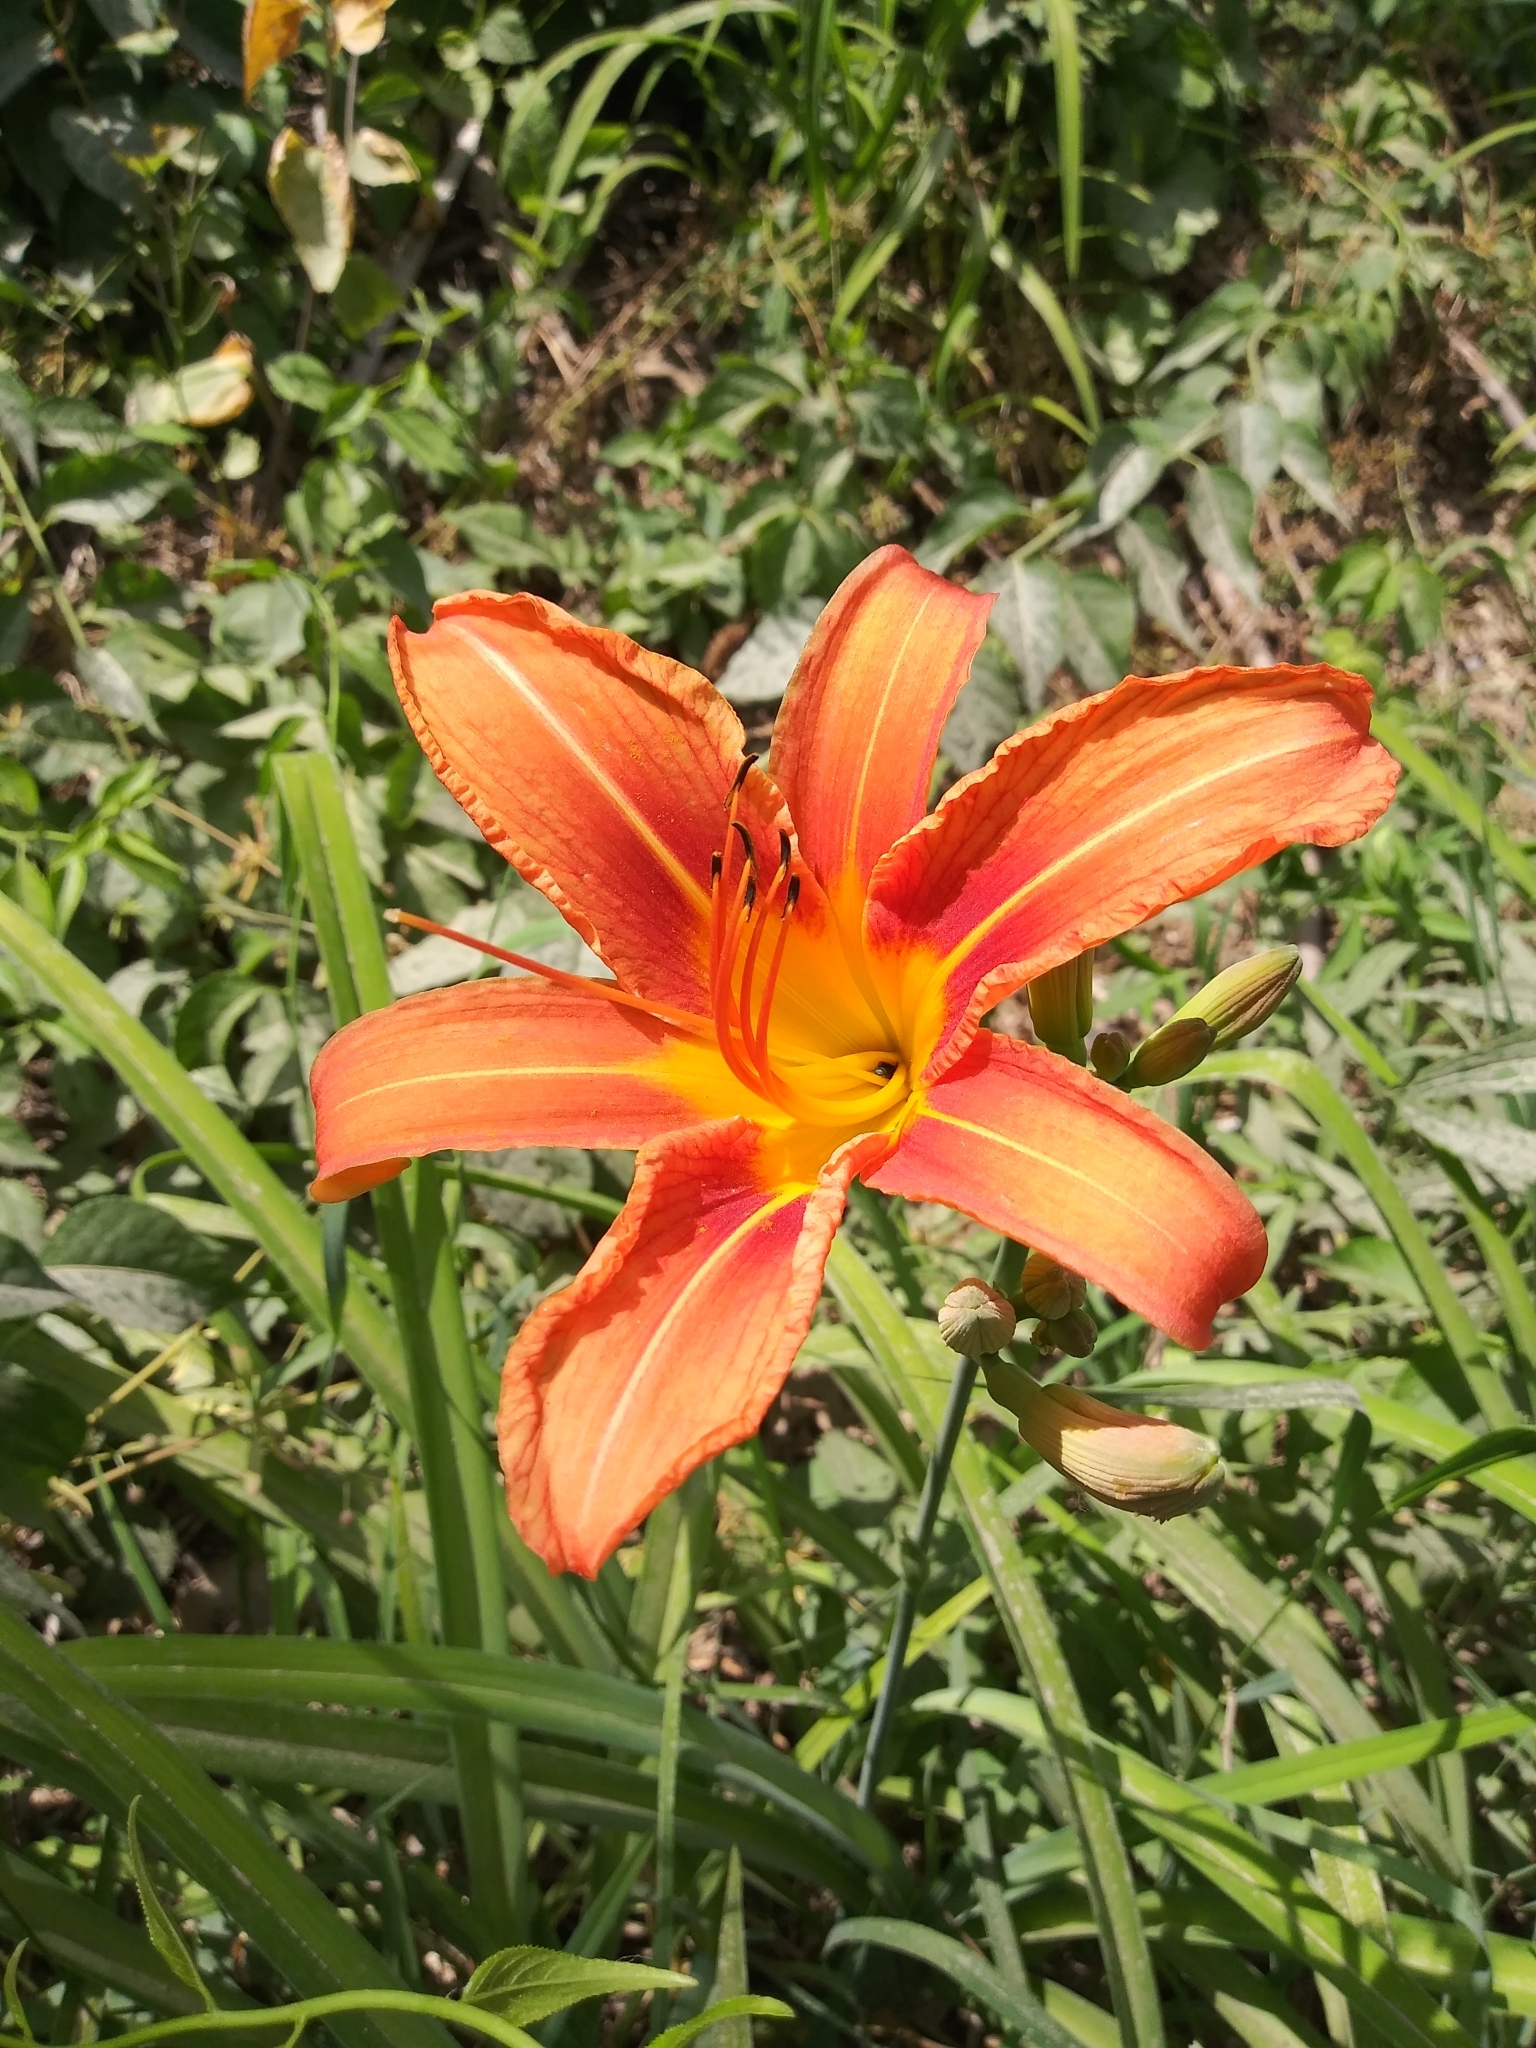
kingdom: Plantae
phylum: Tracheophyta
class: Liliopsida
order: Asparagales
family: Asphodelaceae
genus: Hemerocallis
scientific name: Hemerocallis fulva
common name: Orange day-lily
